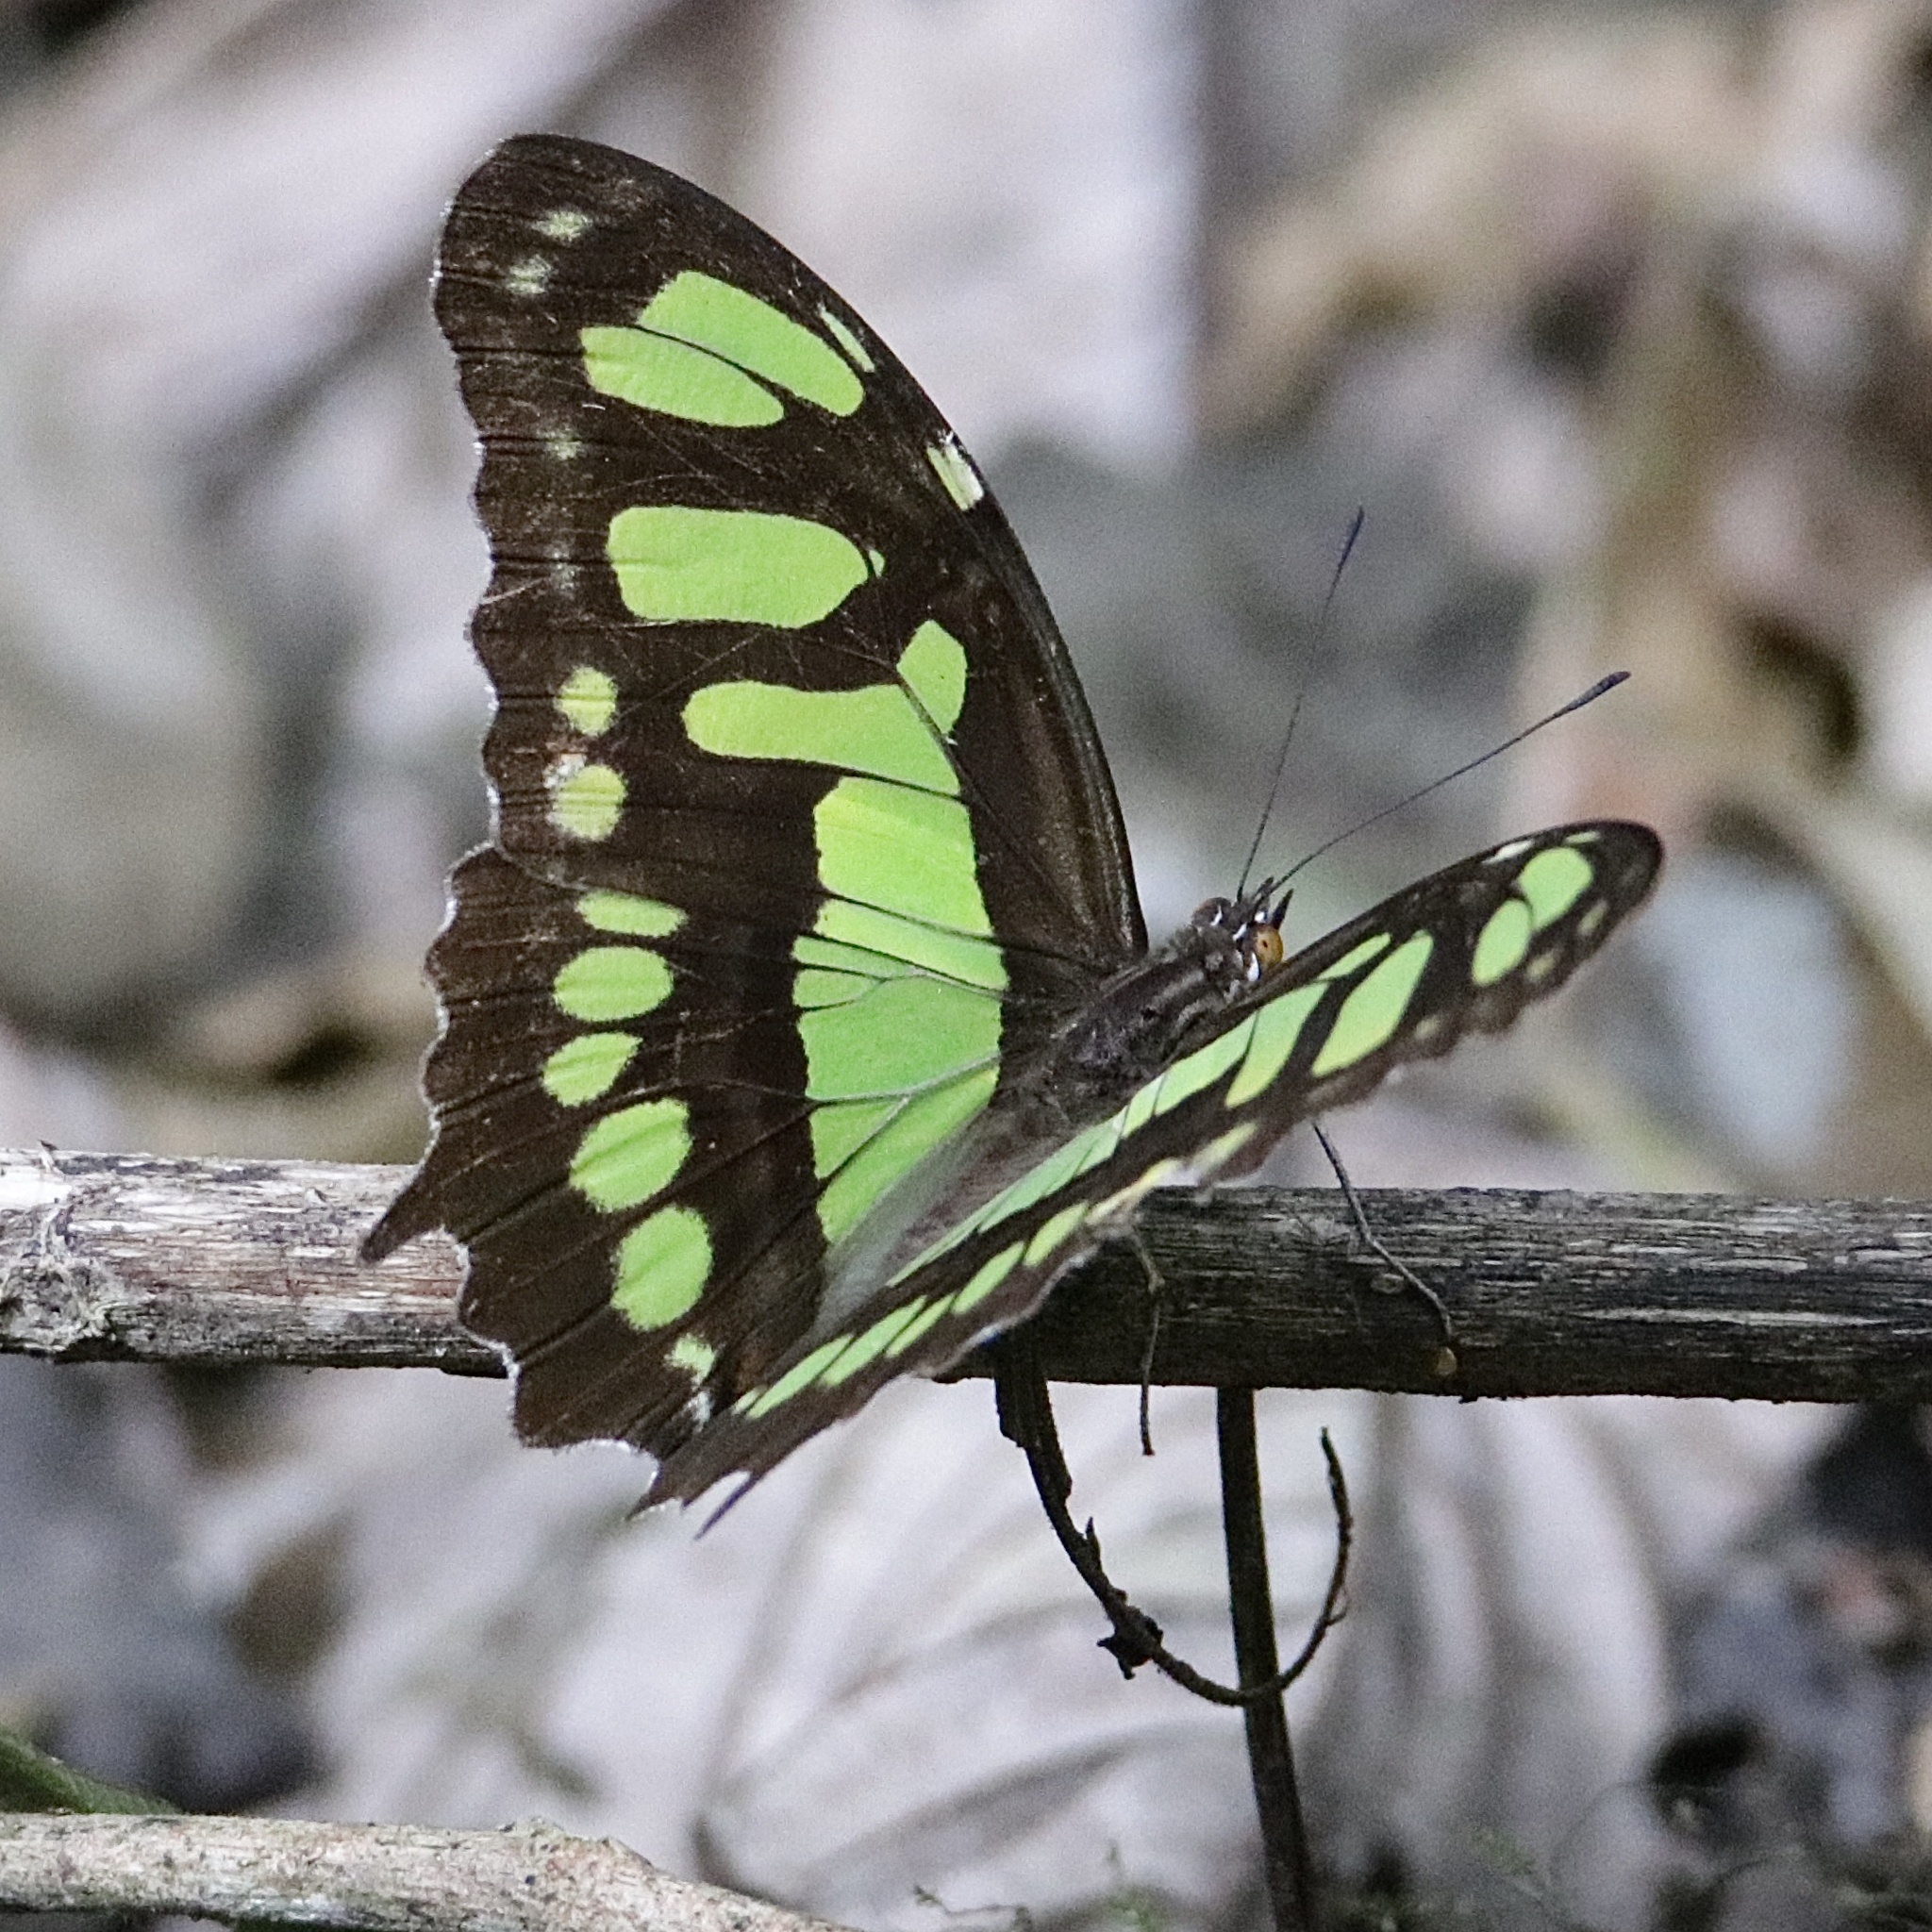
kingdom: Animalia
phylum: Arthropoda
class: Insecta
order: Lepidoptera
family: Nymphalidae
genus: Siproeta
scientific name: Siproeta stelenes
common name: Malachite
